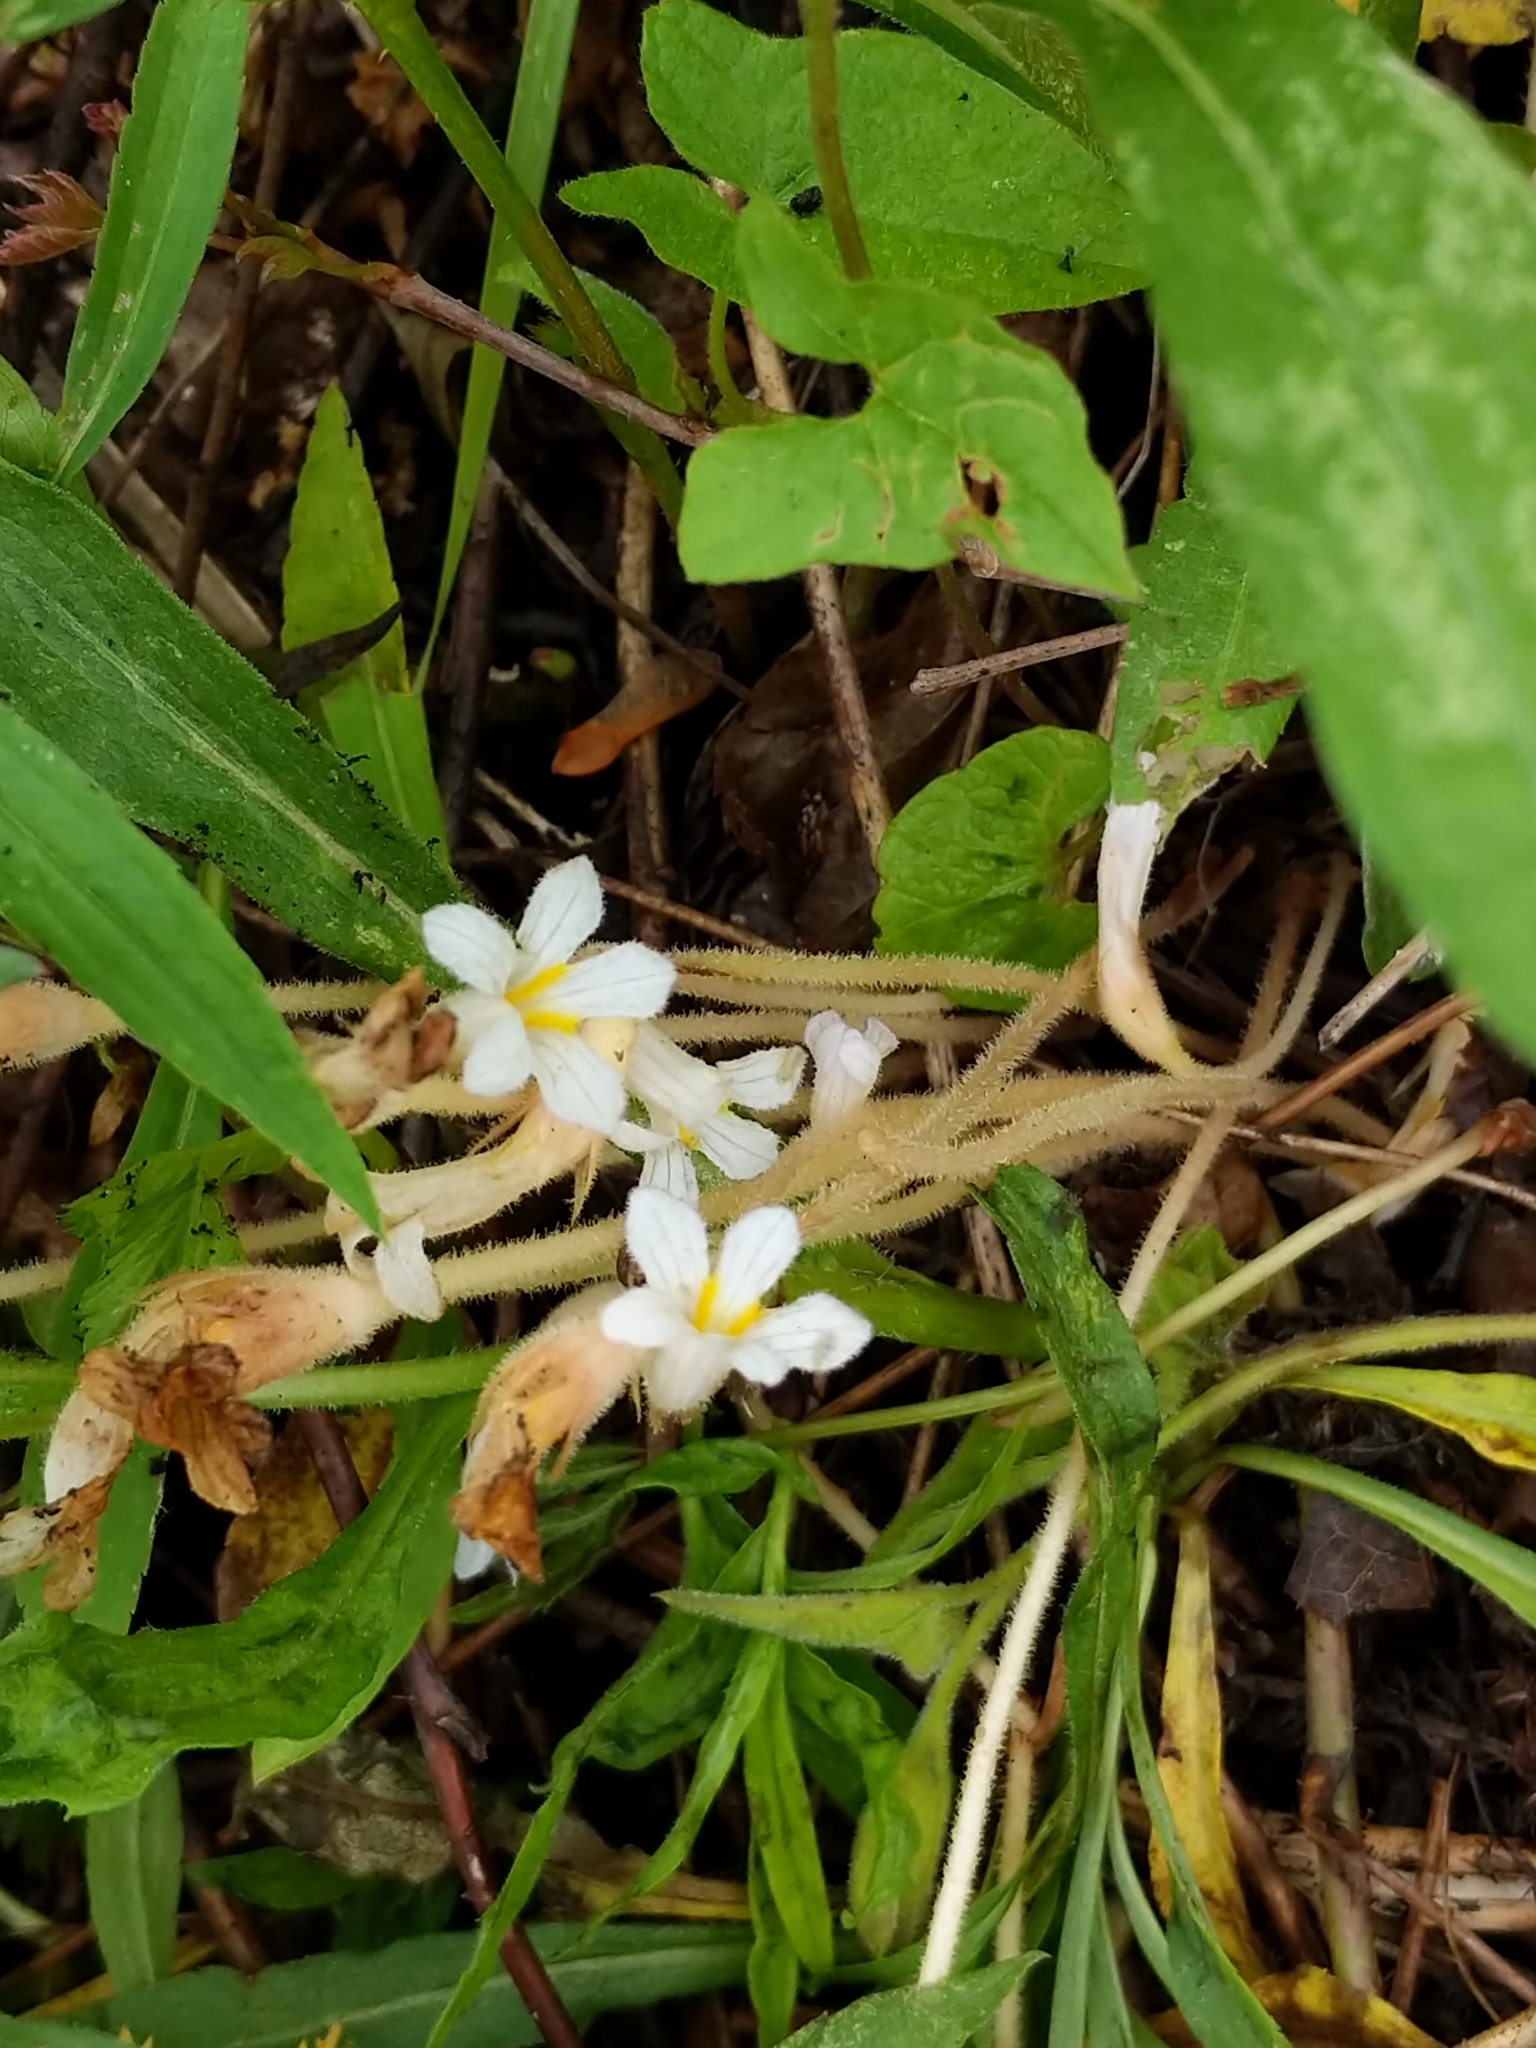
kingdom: Plantae
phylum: Tracheophyta
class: Magnoliopsida
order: Lamiales
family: Orobanchaceae
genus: Aphyllon
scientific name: Aphyllon uniflorum
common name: One-flowered broomrape
